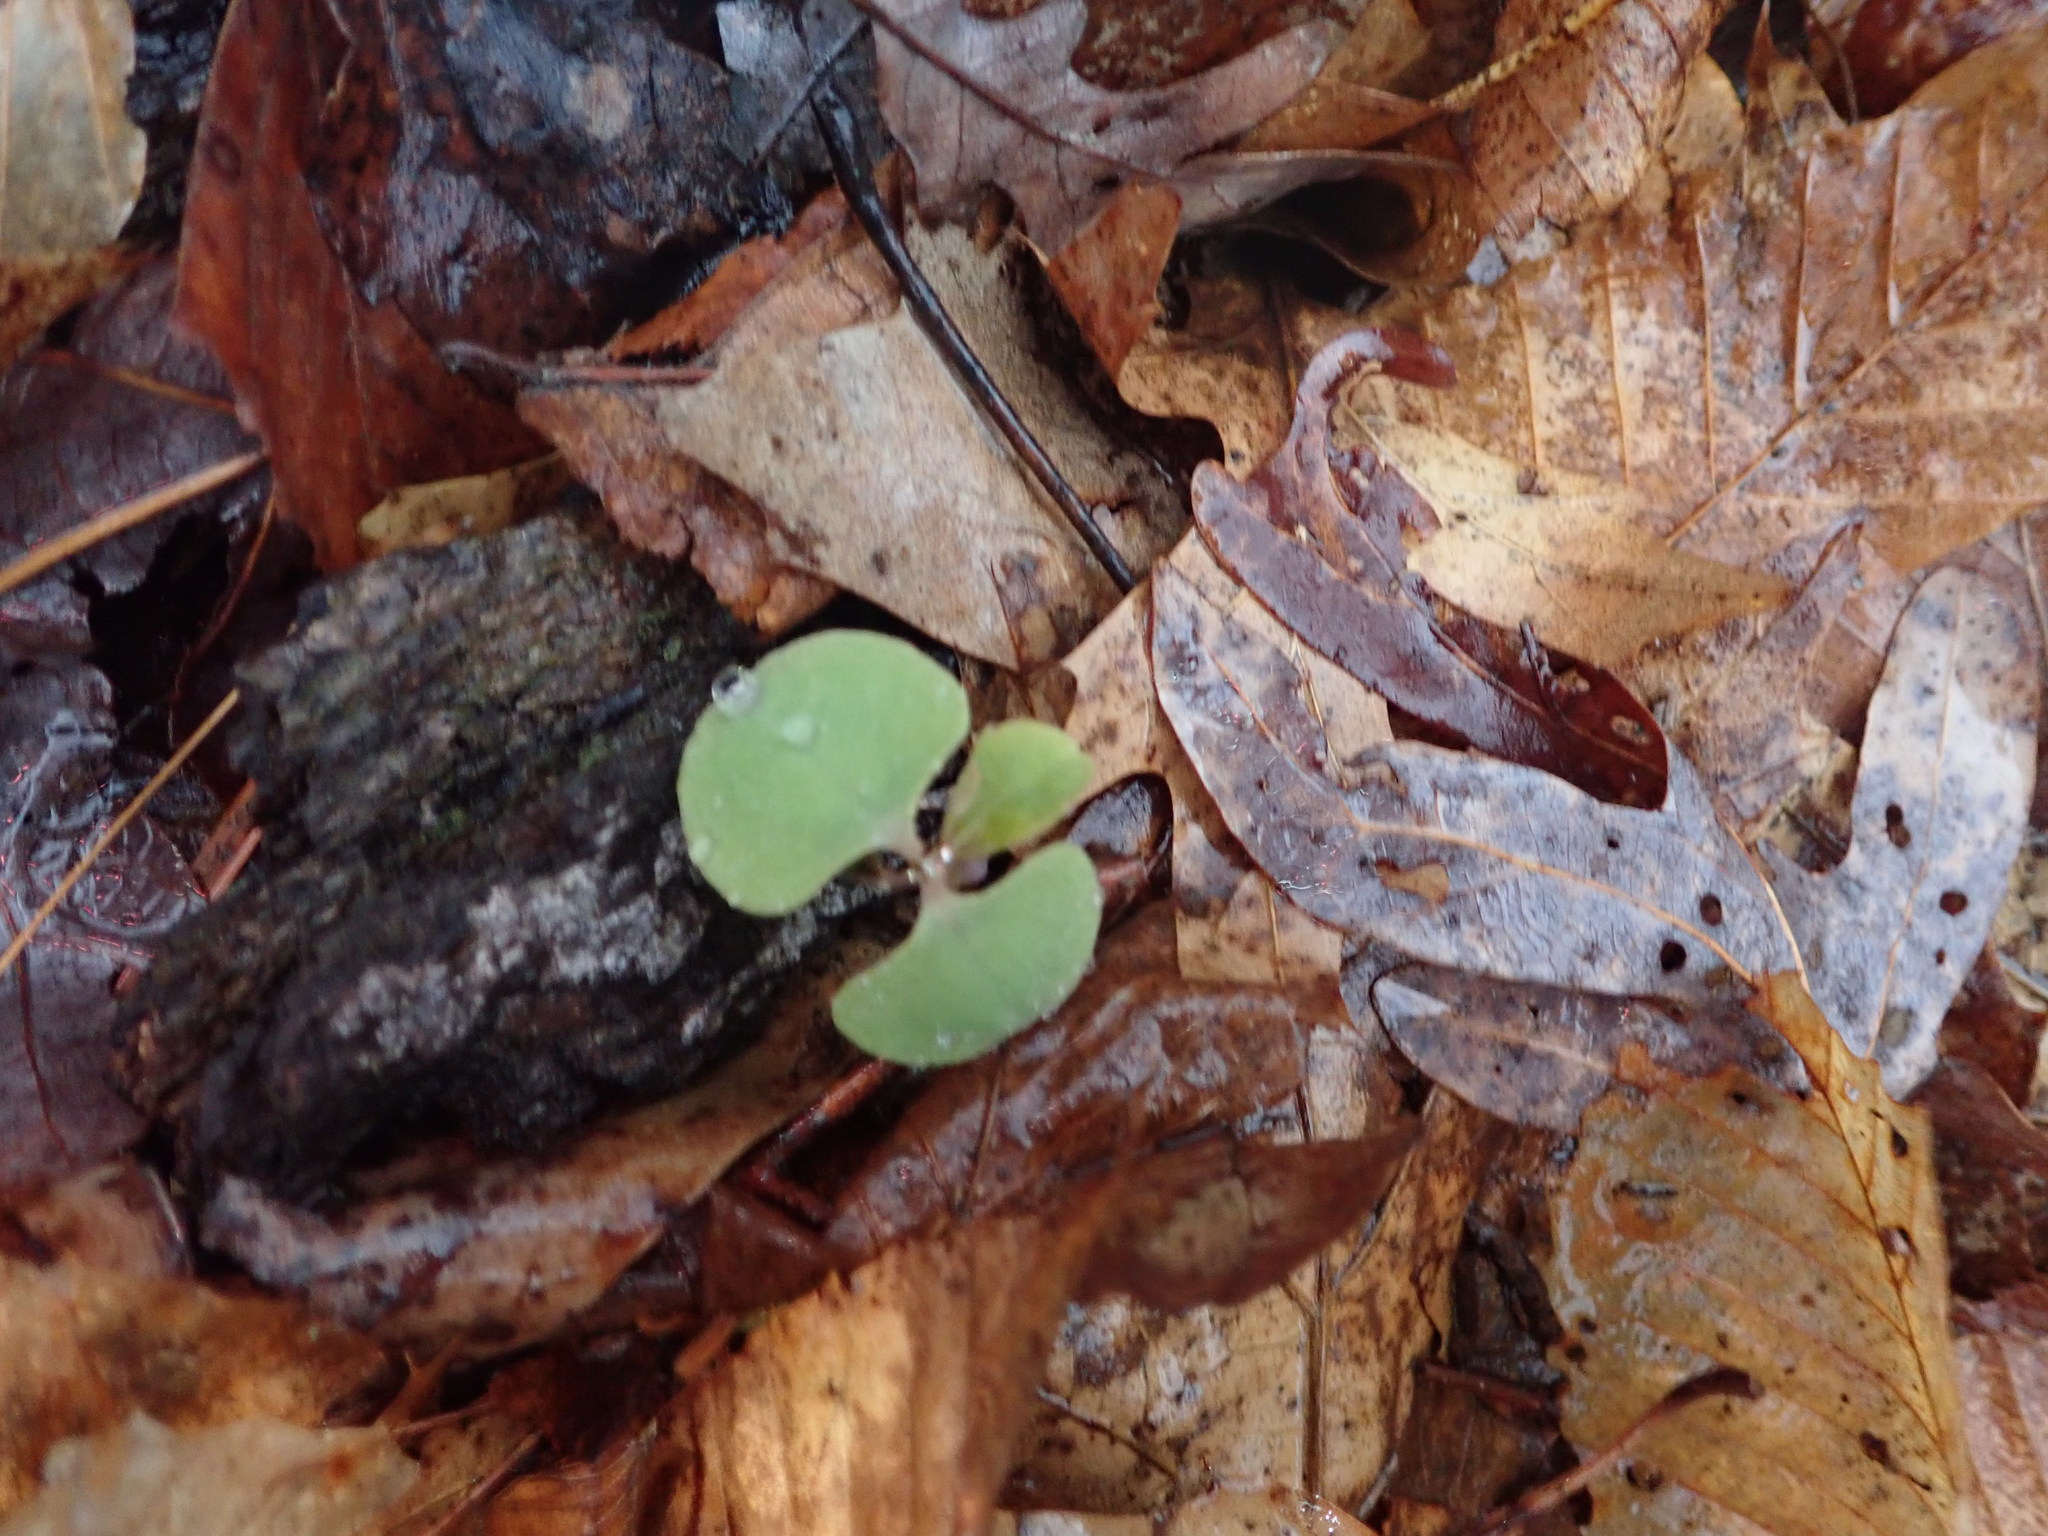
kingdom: Plantae
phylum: Tracheophyta
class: Magnoliopsida
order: Ericales
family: Balsaminaceae
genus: Impatiens
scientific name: Impatiens capensis
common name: Orange balsam
